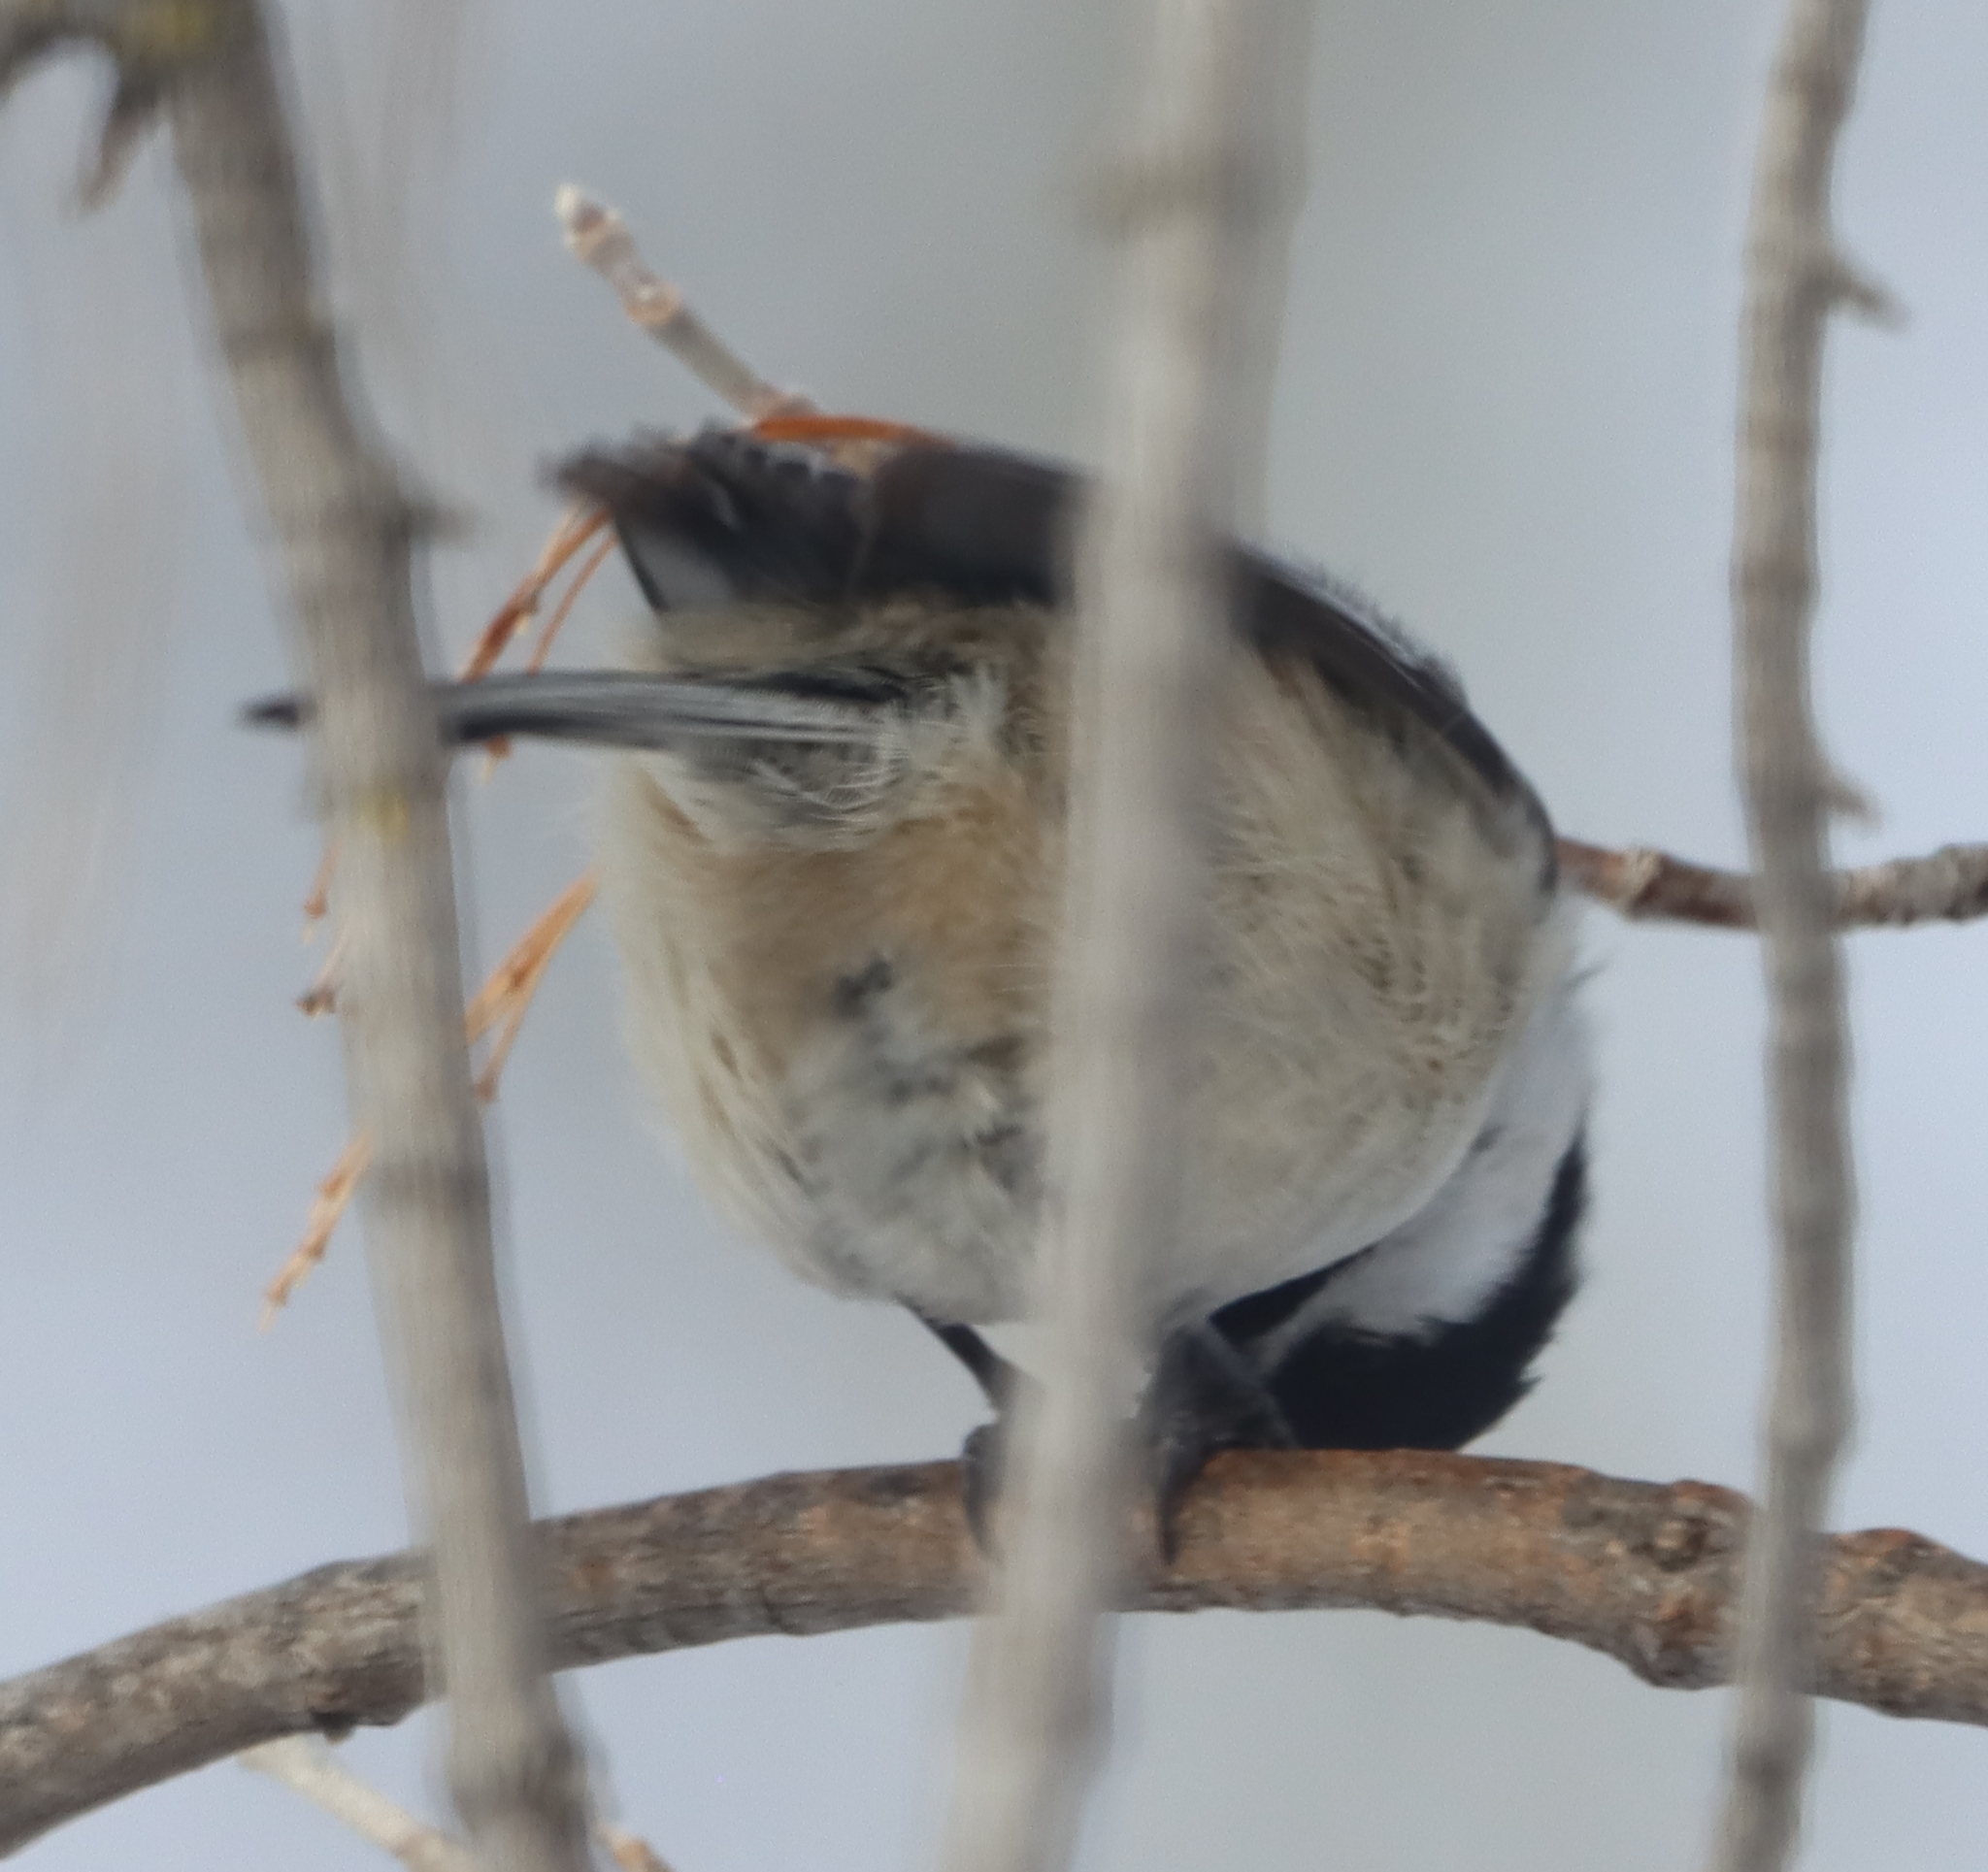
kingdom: Animalia
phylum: Chordata
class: Aves
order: Passeriformes
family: Paridae
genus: Poecile
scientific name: Poecile atricapillus
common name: Black-capped chickadee
